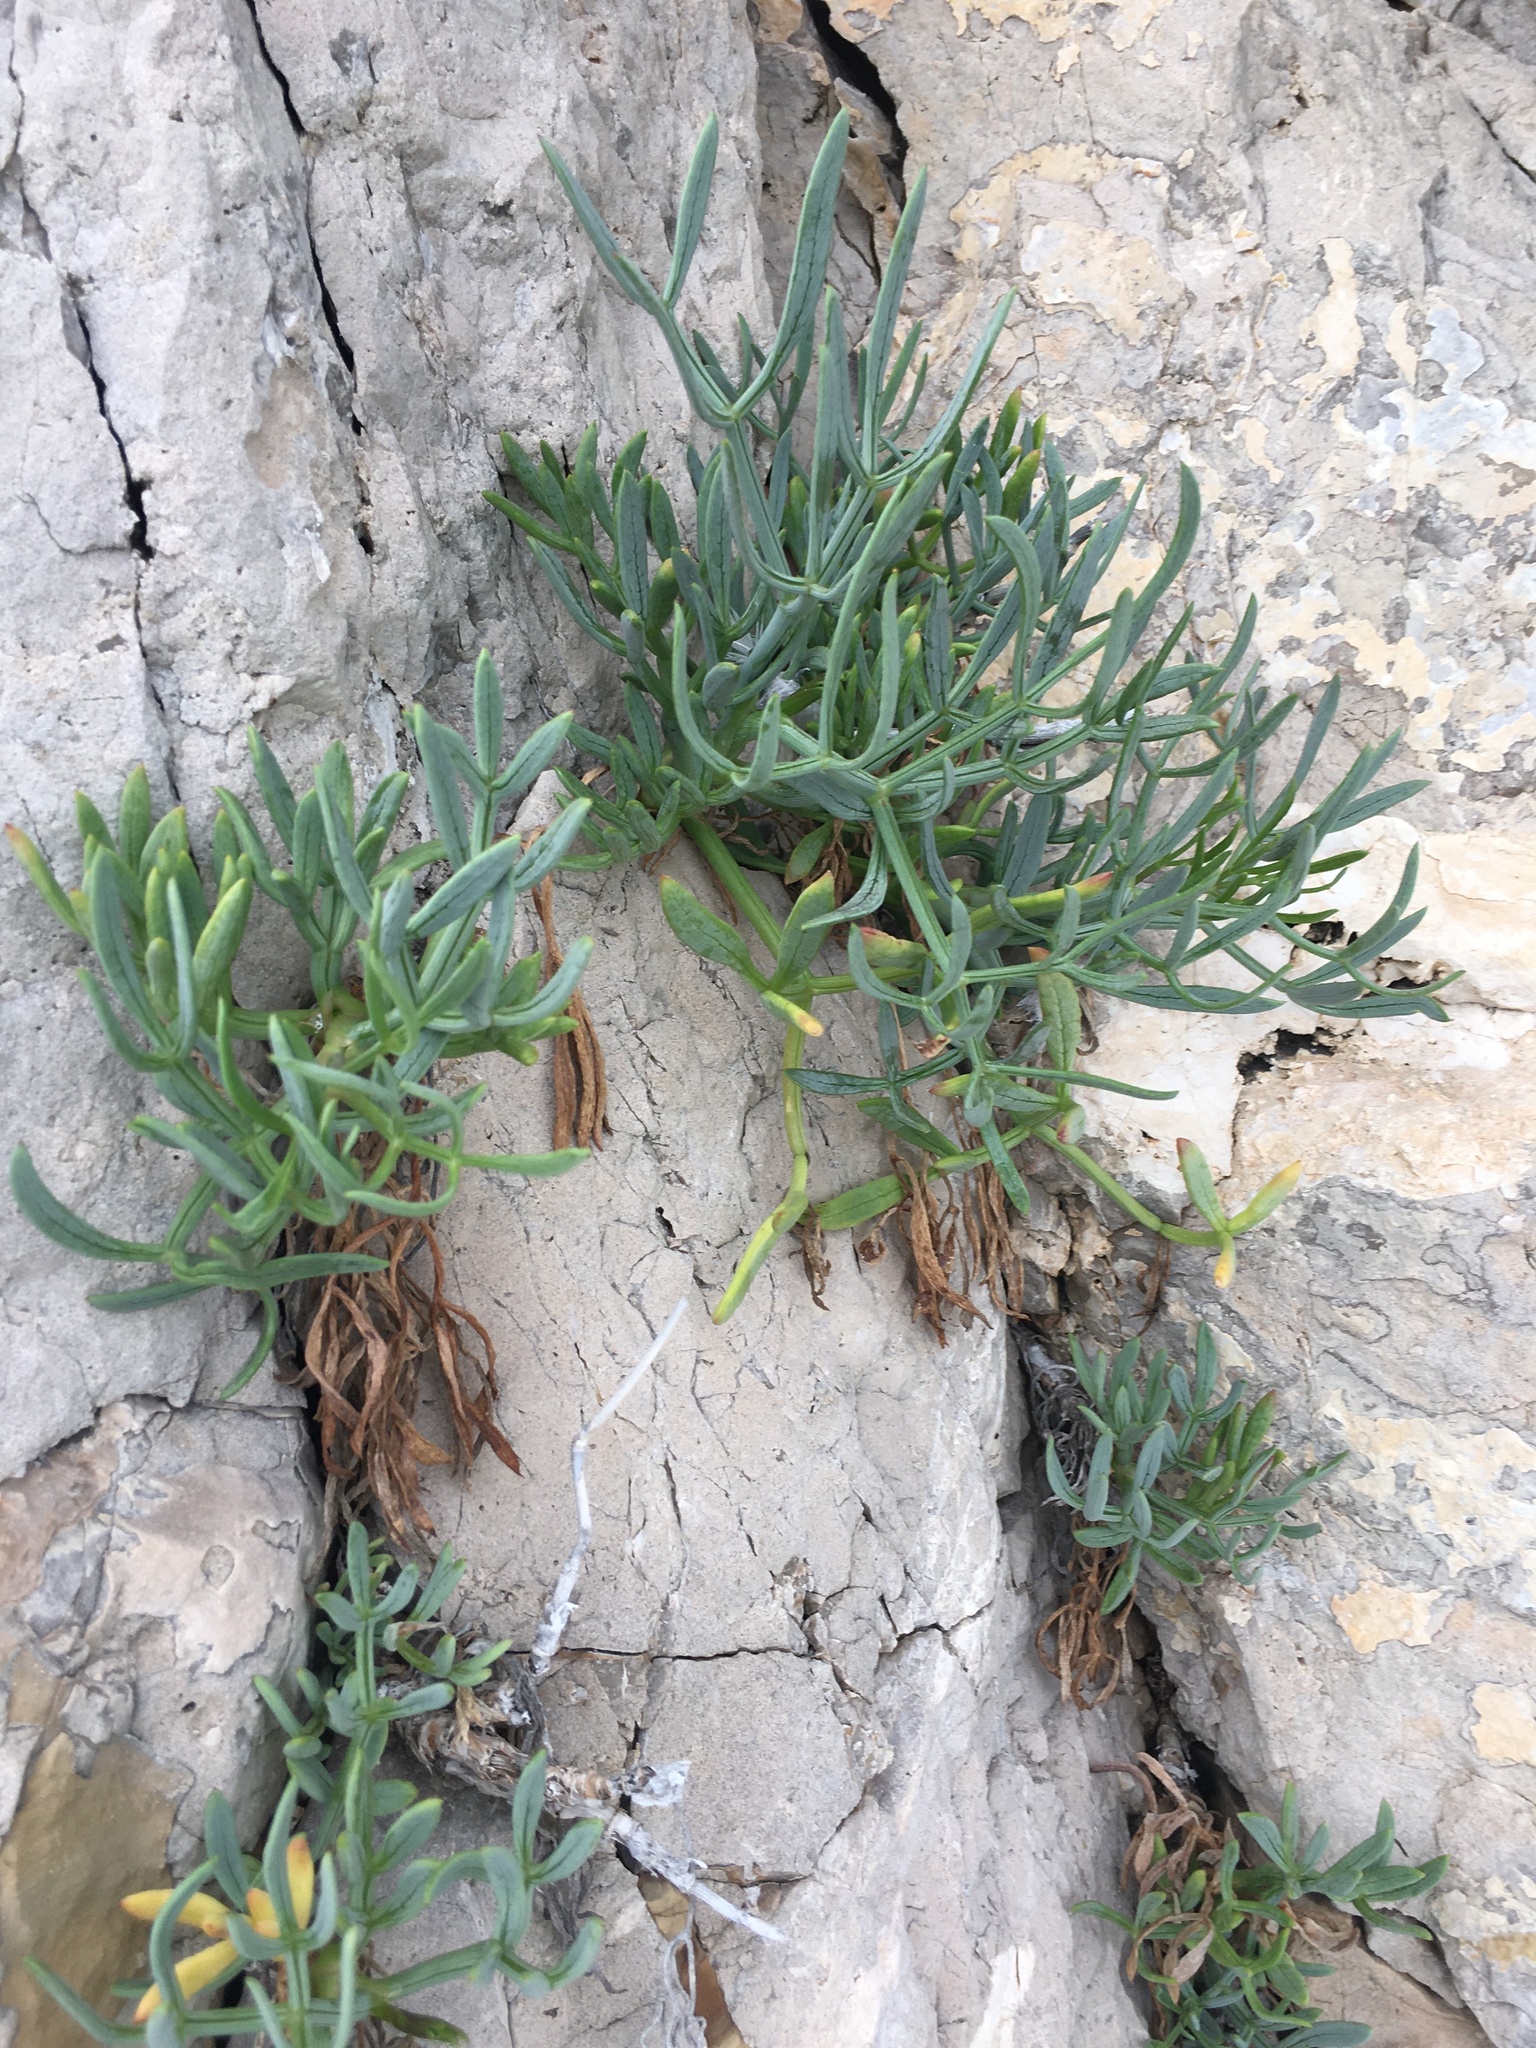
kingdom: Plantae
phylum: Tracheophyta
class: Magnoliopsida
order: Apiales
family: Apiaceae
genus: Crithmum
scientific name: Crithmum maritimum
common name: Rock samphire
